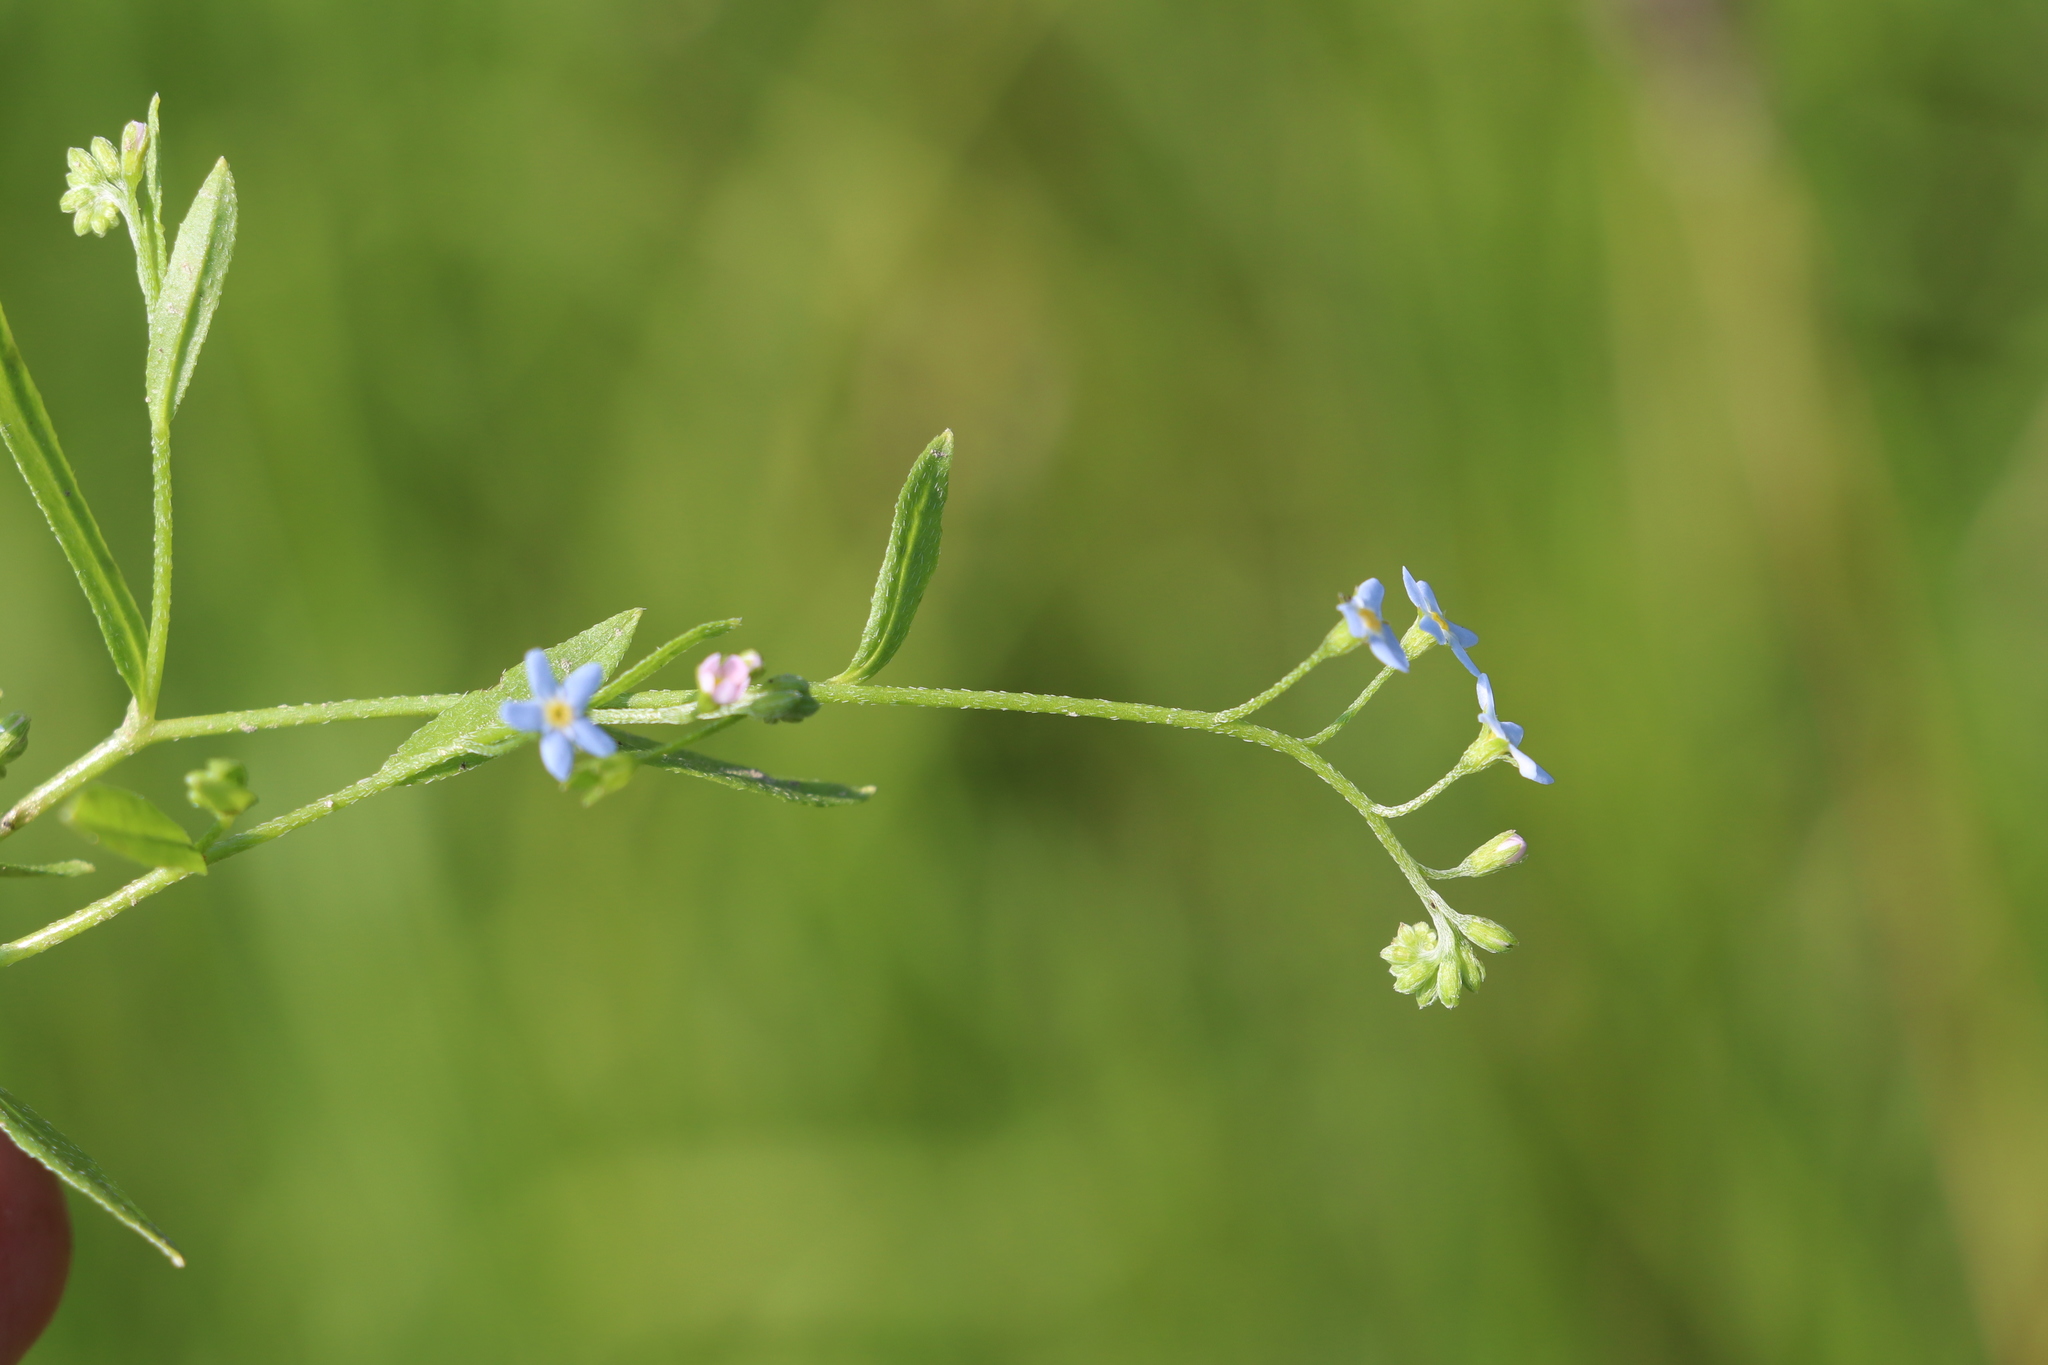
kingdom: Plantae
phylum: Tracheophyta
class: Magnoliopsida
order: Boraginales
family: Boraginaceae
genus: Myosotis
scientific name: Myosotis laxa
